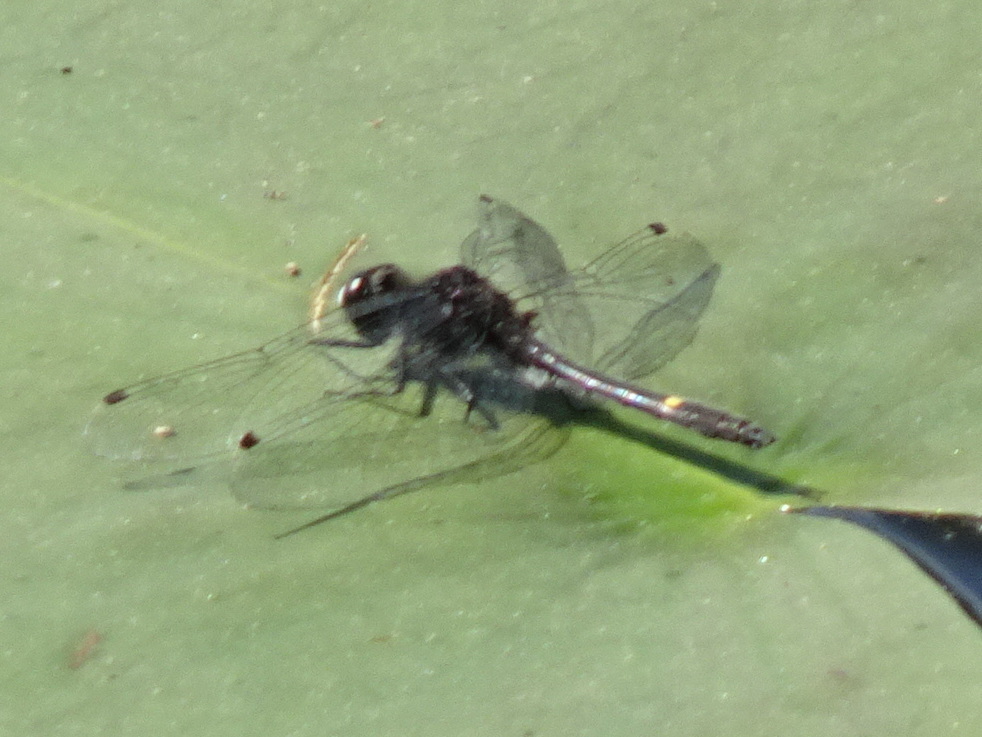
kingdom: Animalia
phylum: Arthropoda
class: Insecta
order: Odonata
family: Libellulidae
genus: Leucorrhinia
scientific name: Leucorrhinia intacta
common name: Dot-tailed whiteface
